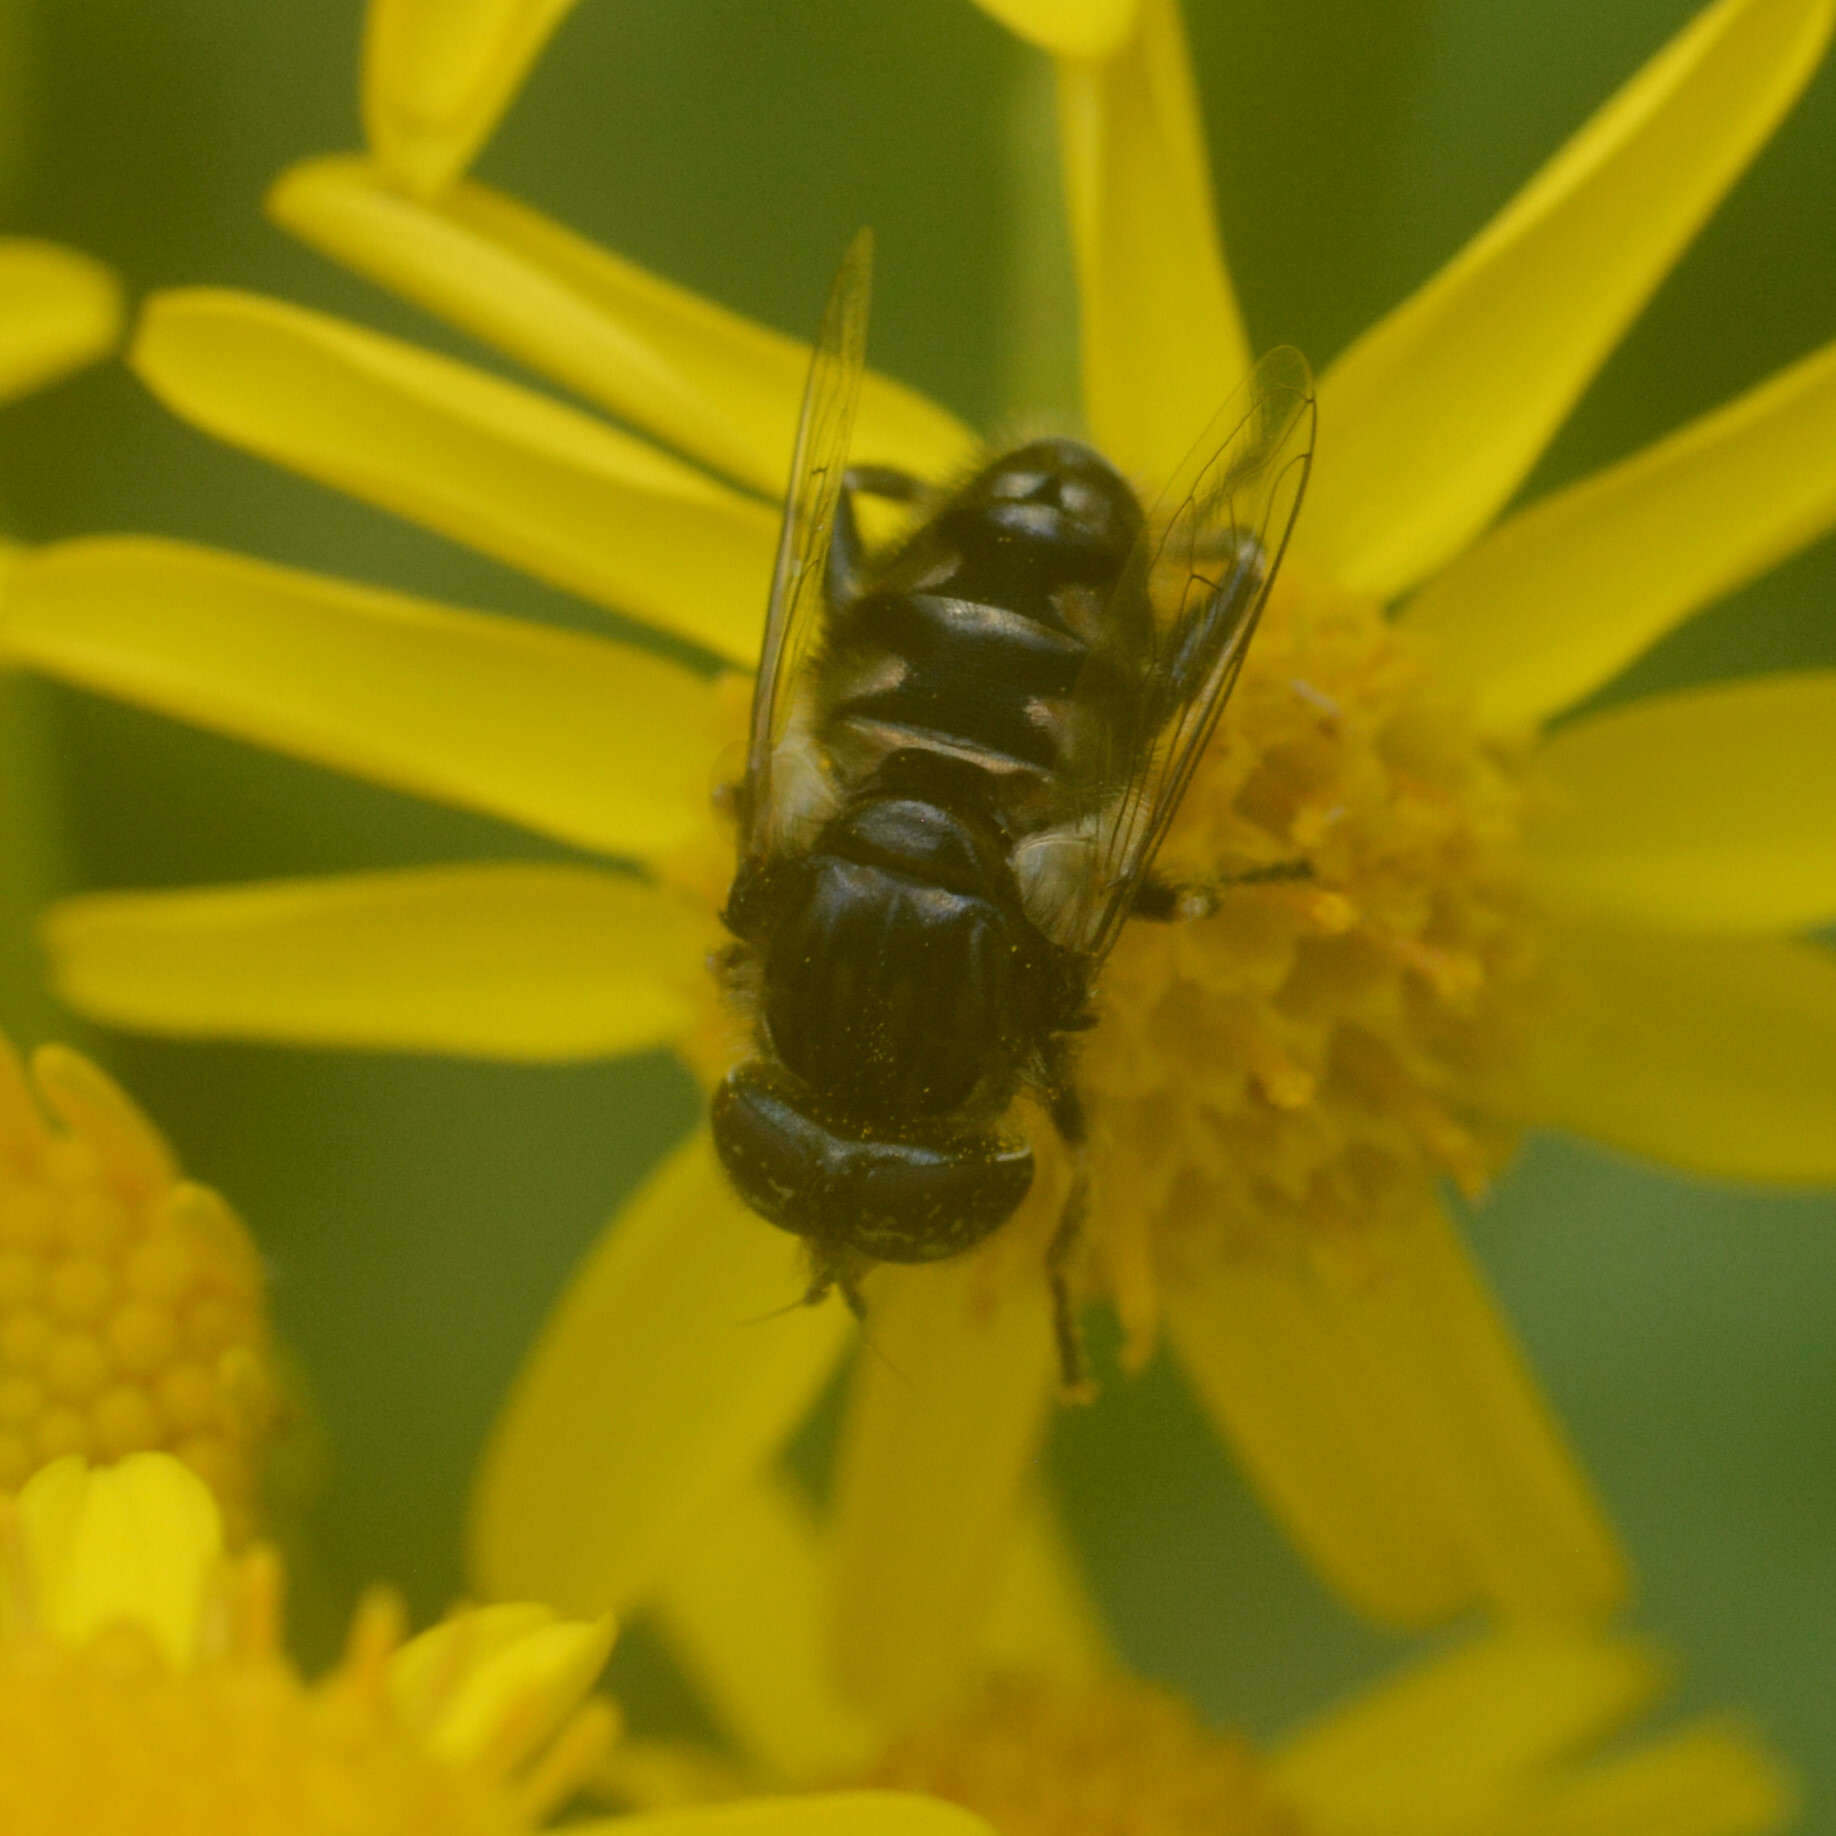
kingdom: Animalia
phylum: Arthropoda
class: Insecta
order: Diptera
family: Syrphidae
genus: Eristalinus
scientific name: Eristalinus sepulchralis
